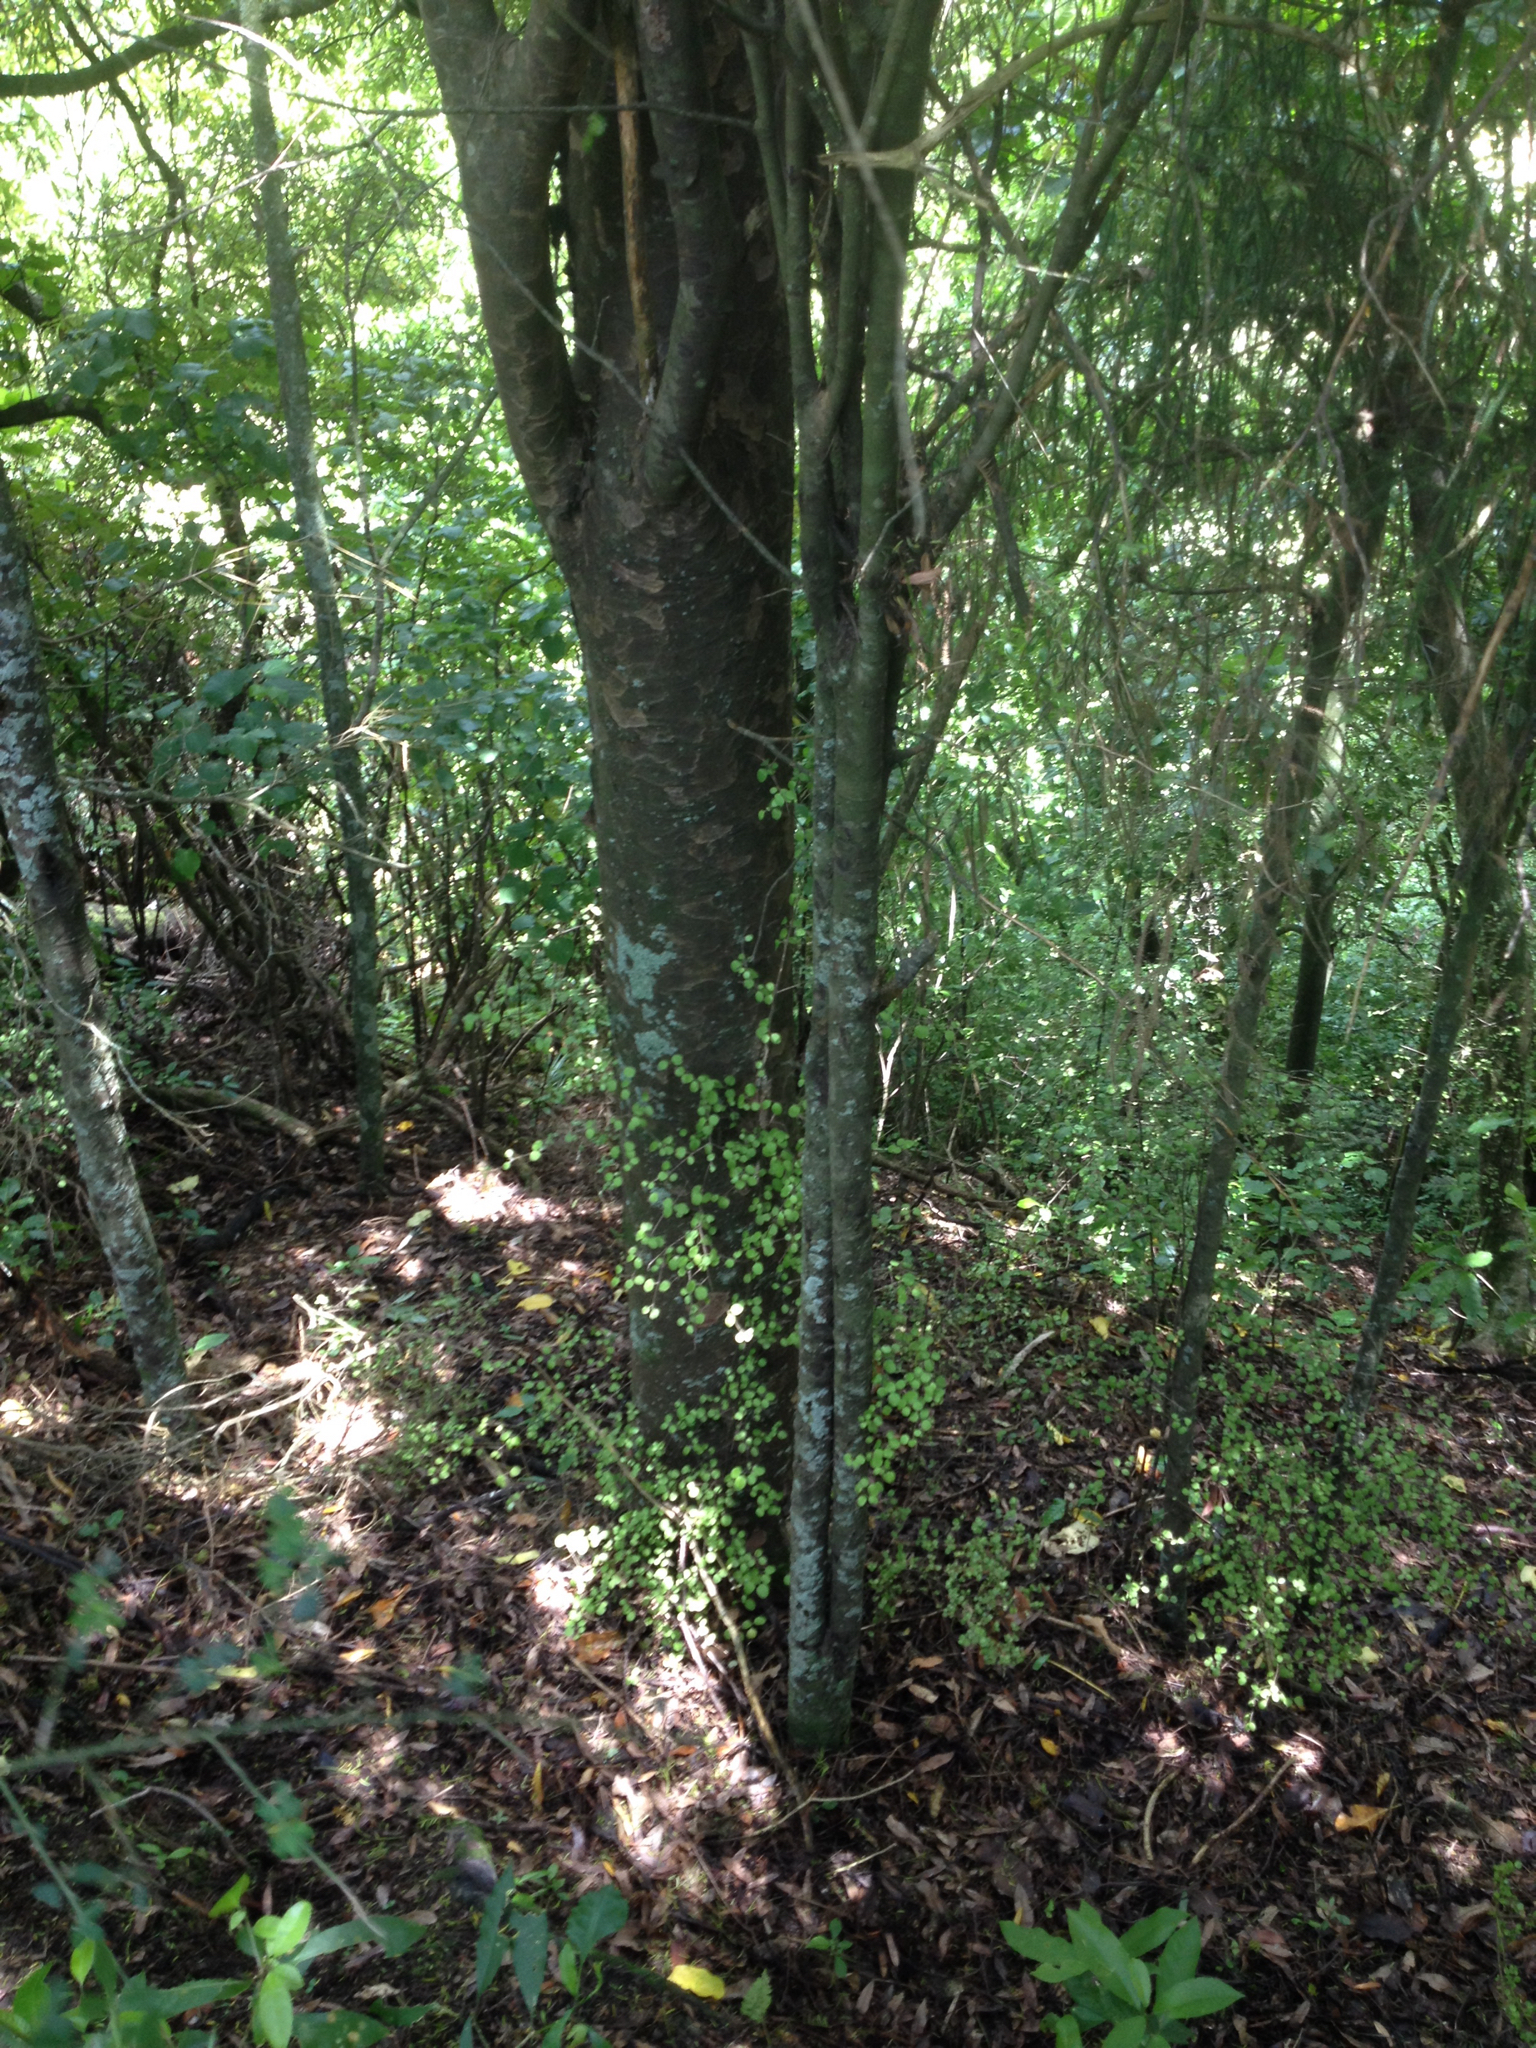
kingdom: Plantae
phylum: Tracheophyta
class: Pinopsida
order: Pinales
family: Podocarpaceae
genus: Prumnopitys
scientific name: Prumnopitys taxifolia
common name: Matai
